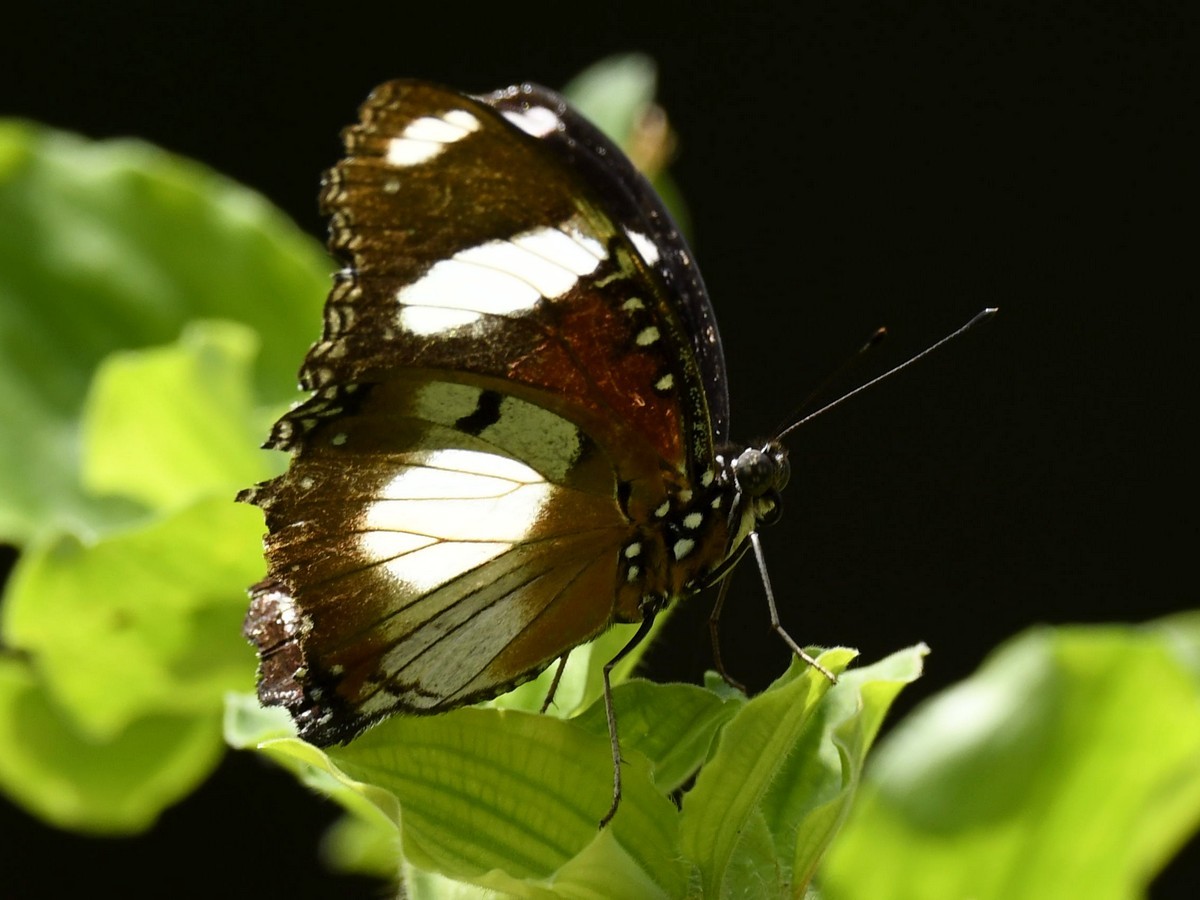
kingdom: Animalia
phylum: Arthropoda
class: Insecta
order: Lepidoptera
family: Nymphalidae
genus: Hypolimnas
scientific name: Hypolimnas misippus
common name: False plain tiger
